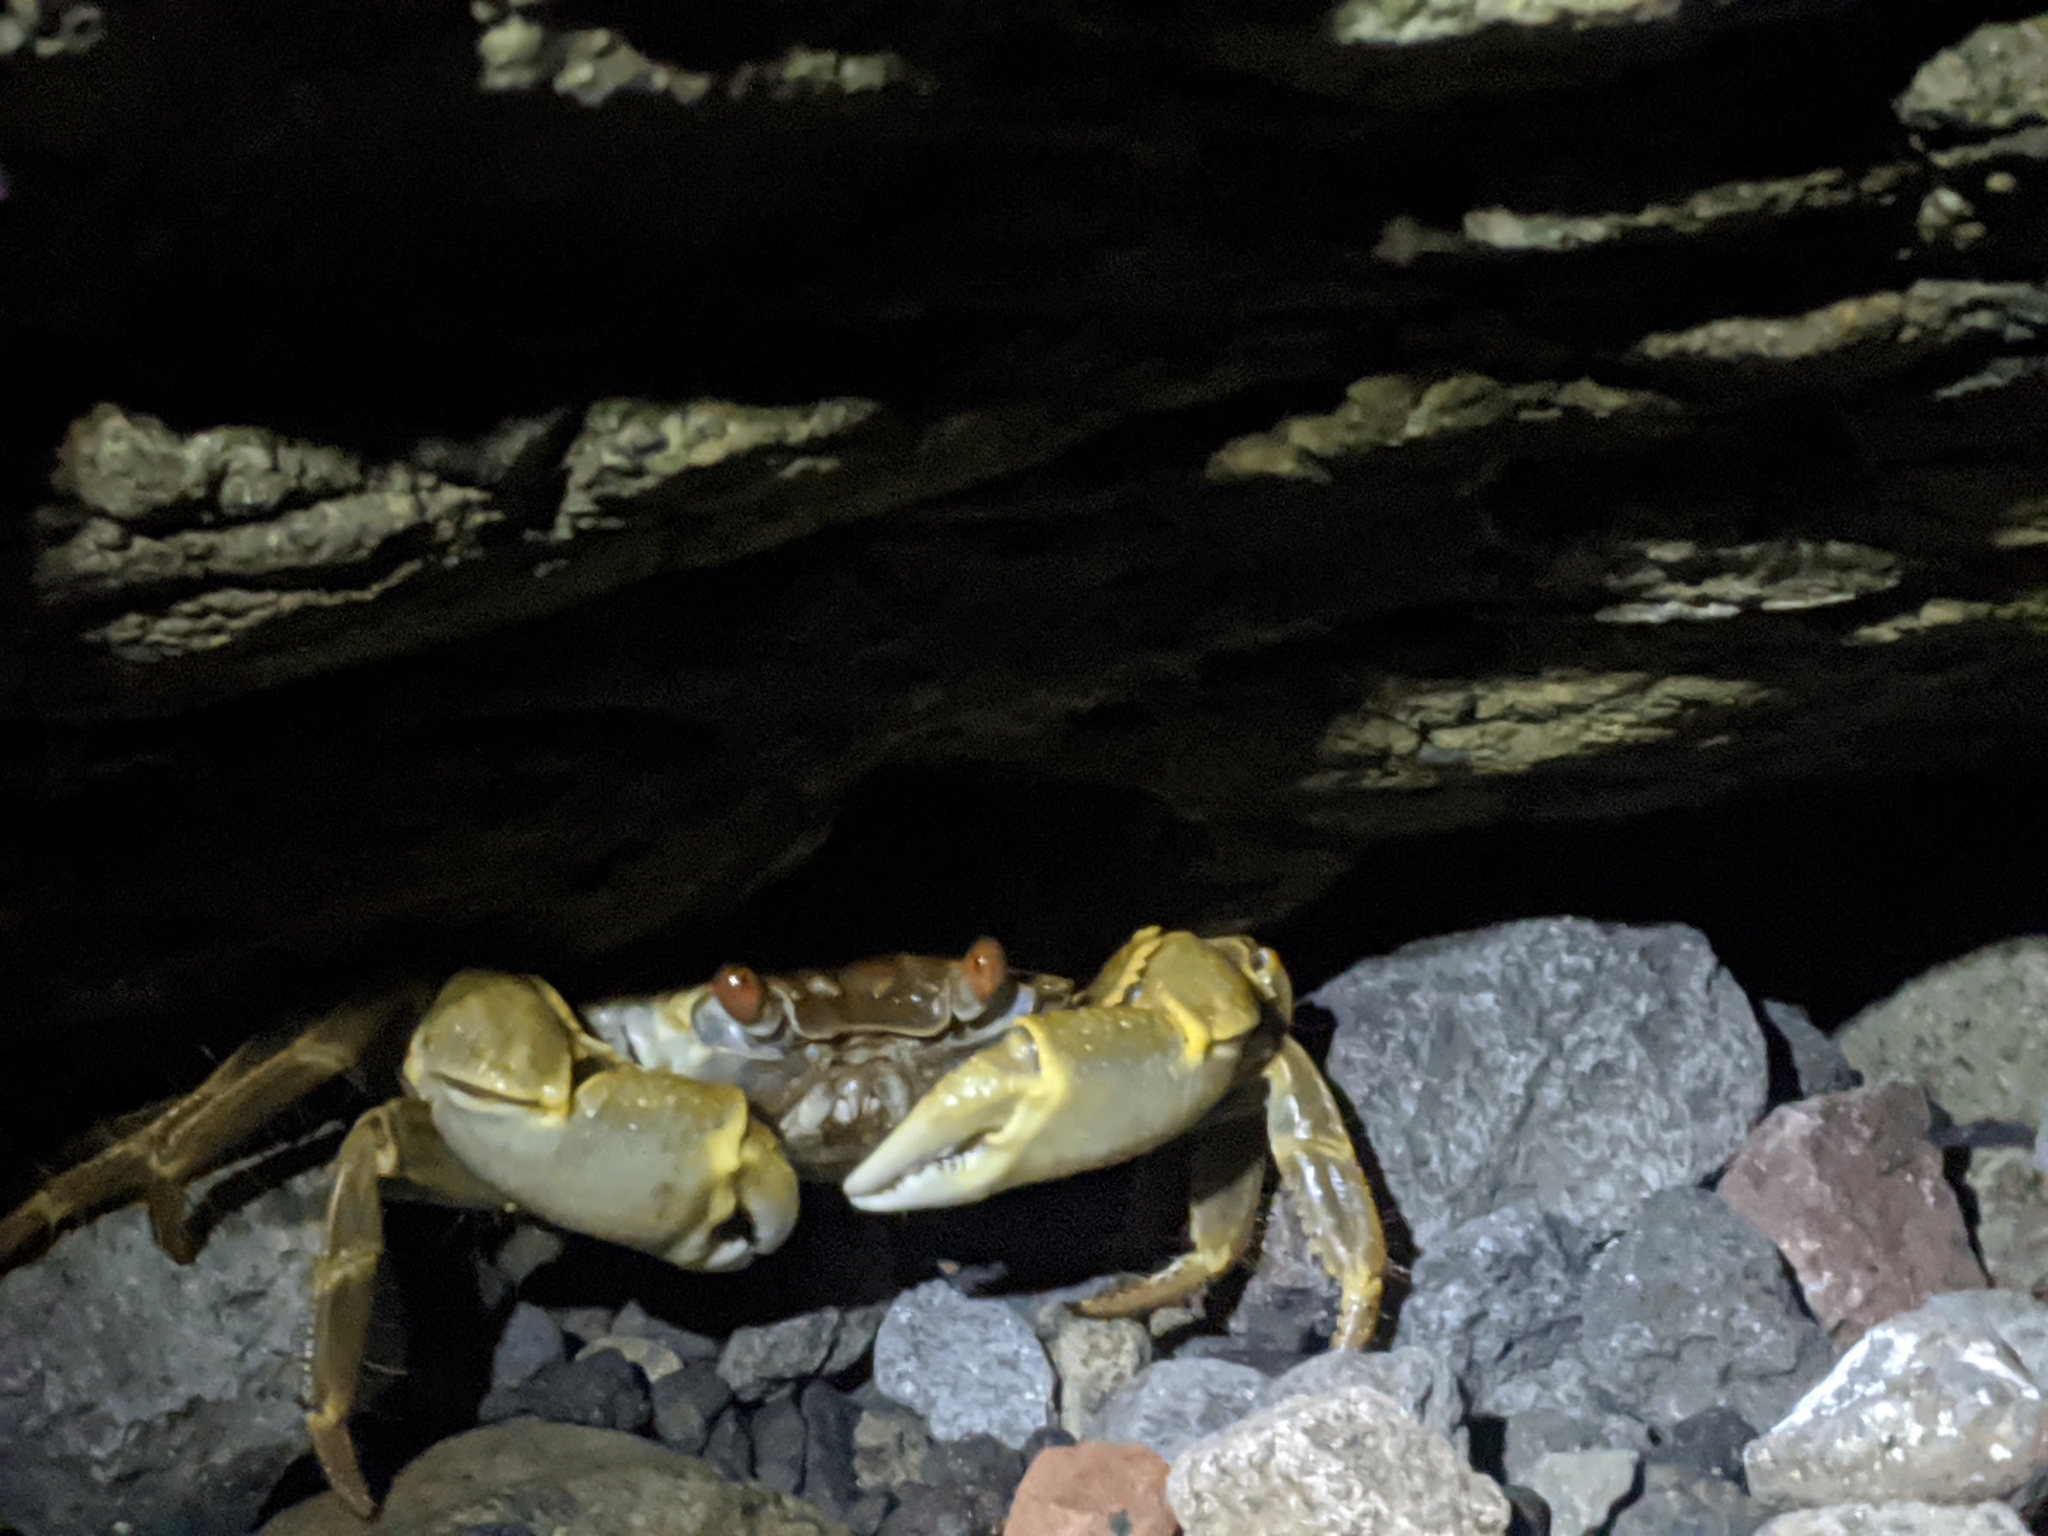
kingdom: Animalia
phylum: Arthropoda
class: Malacostraca
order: Decapoda
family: Grapsidae
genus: Geograpsus
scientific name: Geograpsus crinipes
